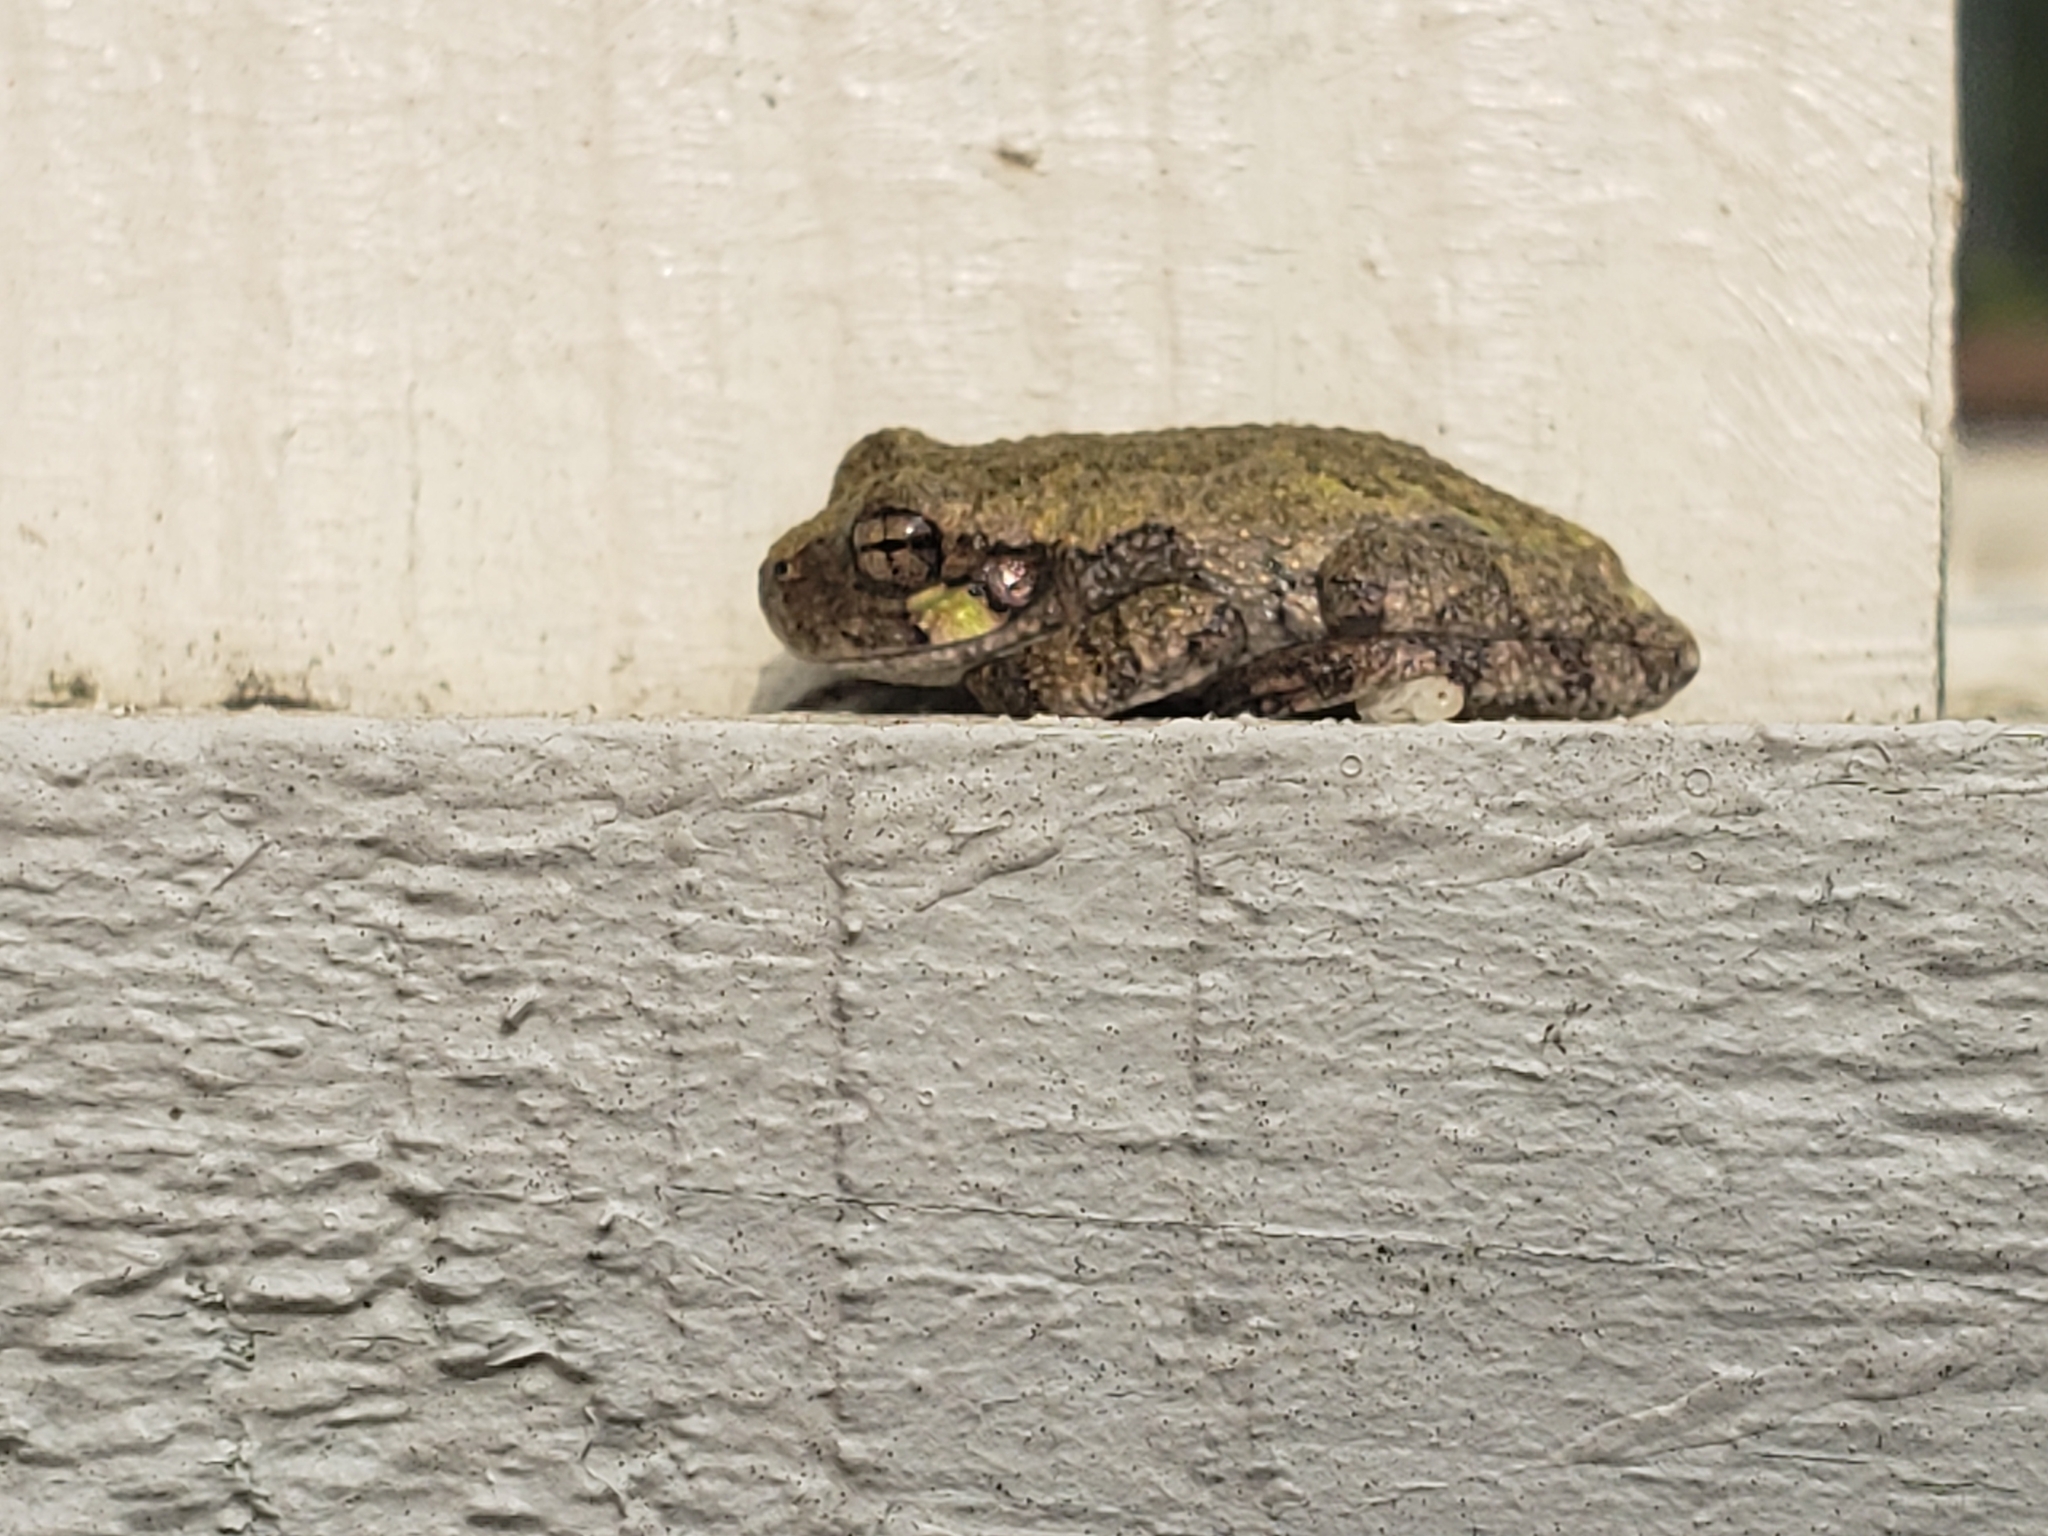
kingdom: Animalia
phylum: Chordata
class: Amphibia
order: Anura
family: Hylidae
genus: Hyla
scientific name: Hyla
